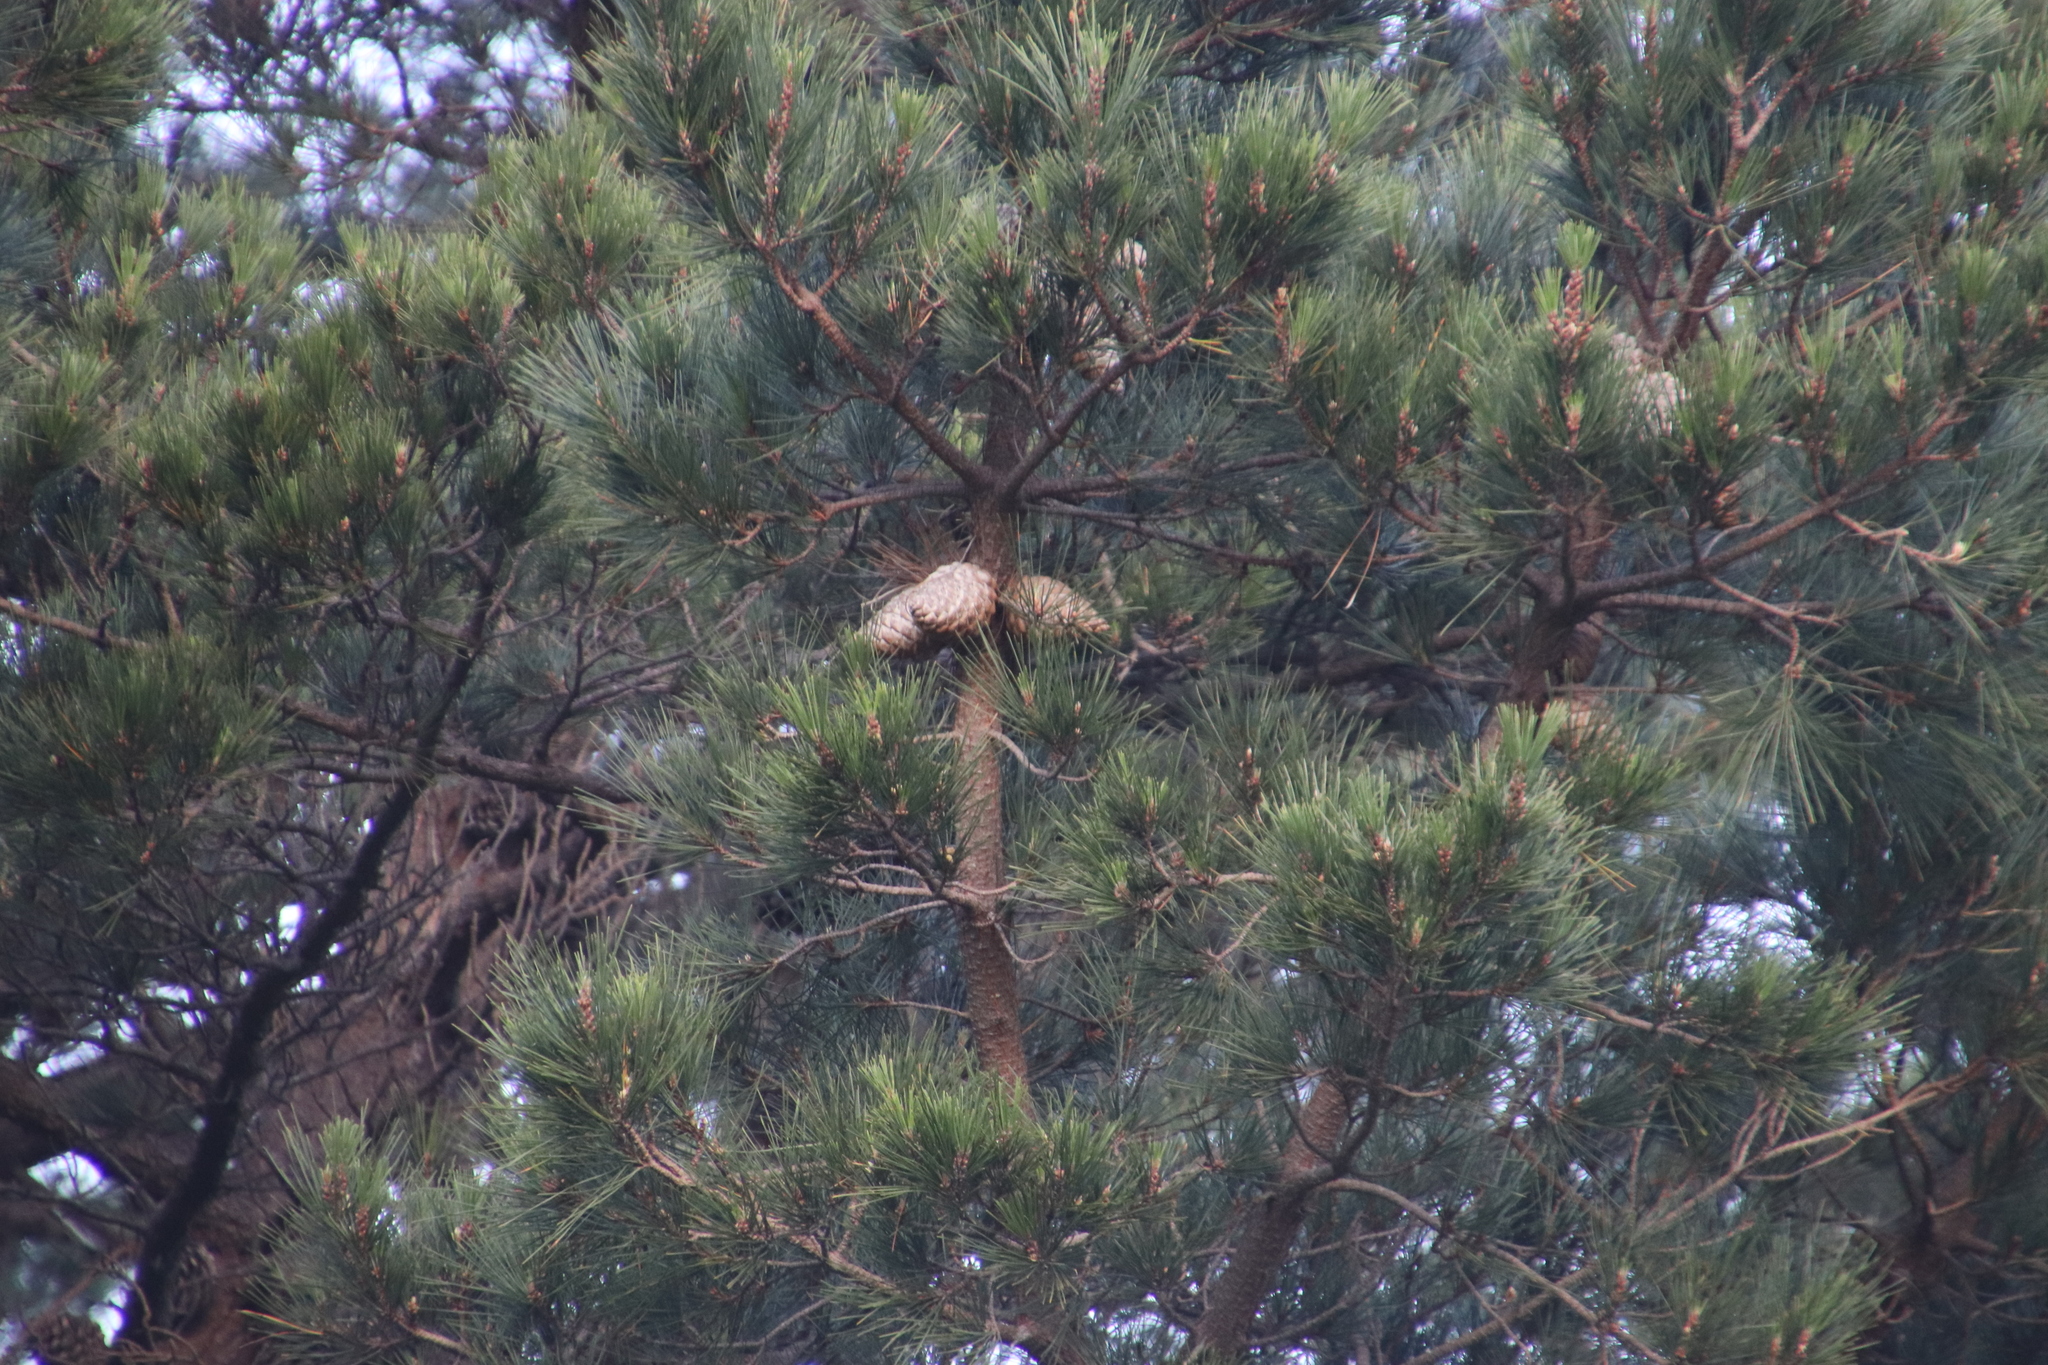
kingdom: Plantae
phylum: Tracheophyta
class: Pinopsida
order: Pinales
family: Pinaceae
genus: Pinus
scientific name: Pinus radiata
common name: Monterey pine
